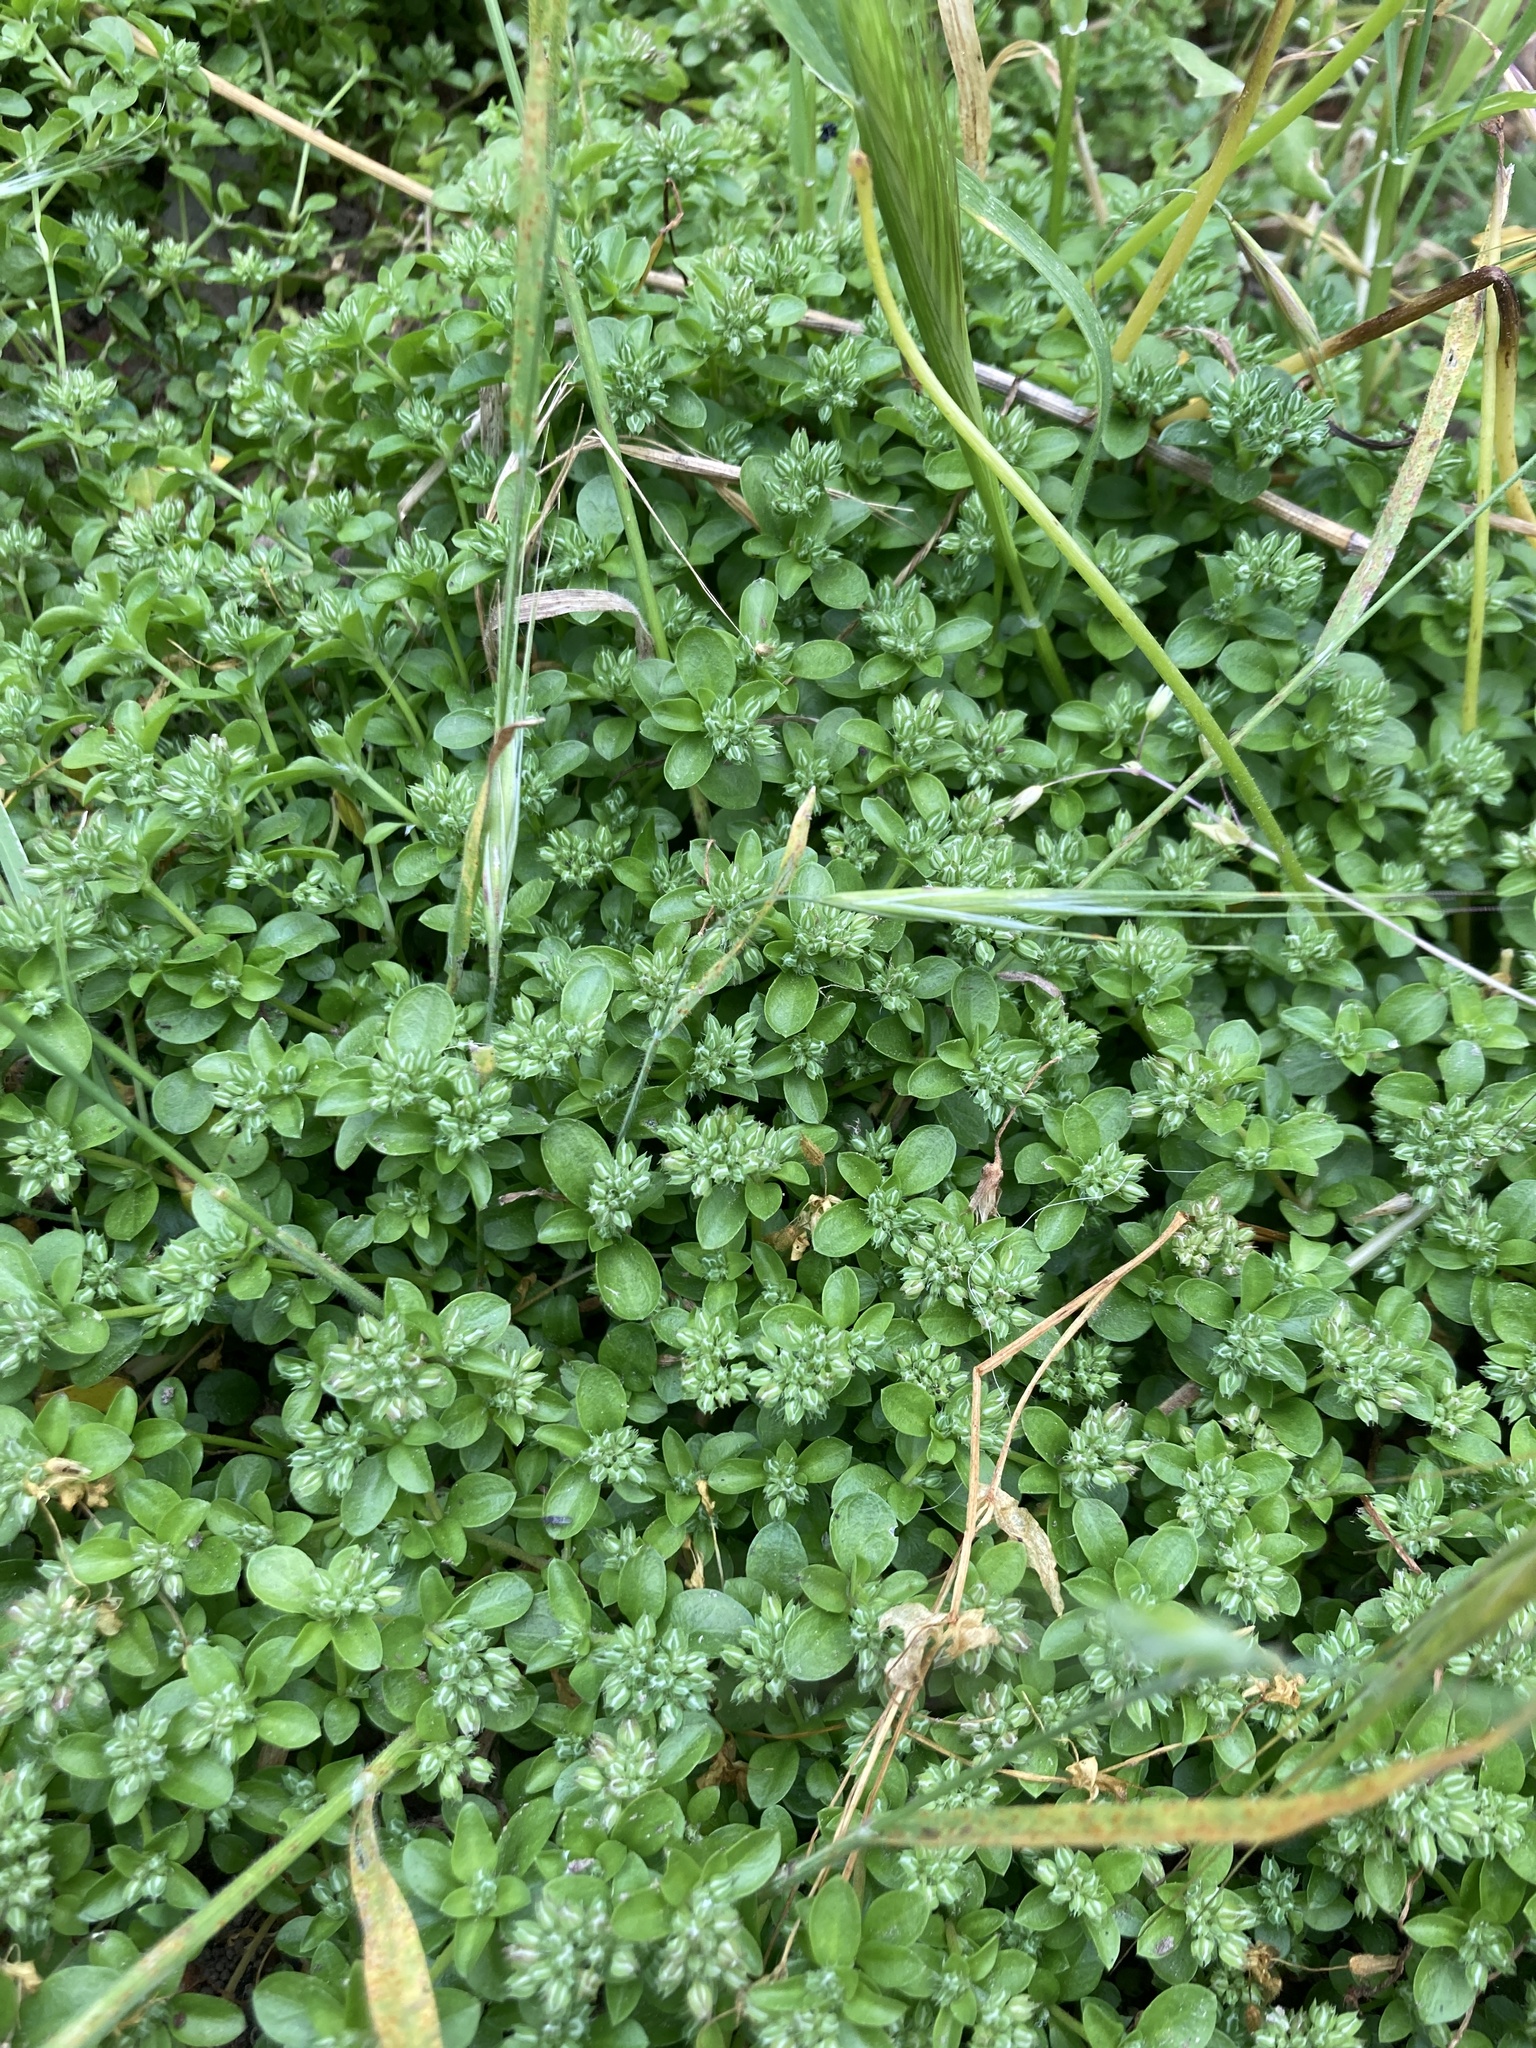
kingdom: Plantae
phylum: Tracheophyta
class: Magnoliopsida
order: Caryophyllales
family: Caryophyllaceae
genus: Polycarpon
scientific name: Polycarpon tetraphyllum
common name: Four-leaved all-seed
